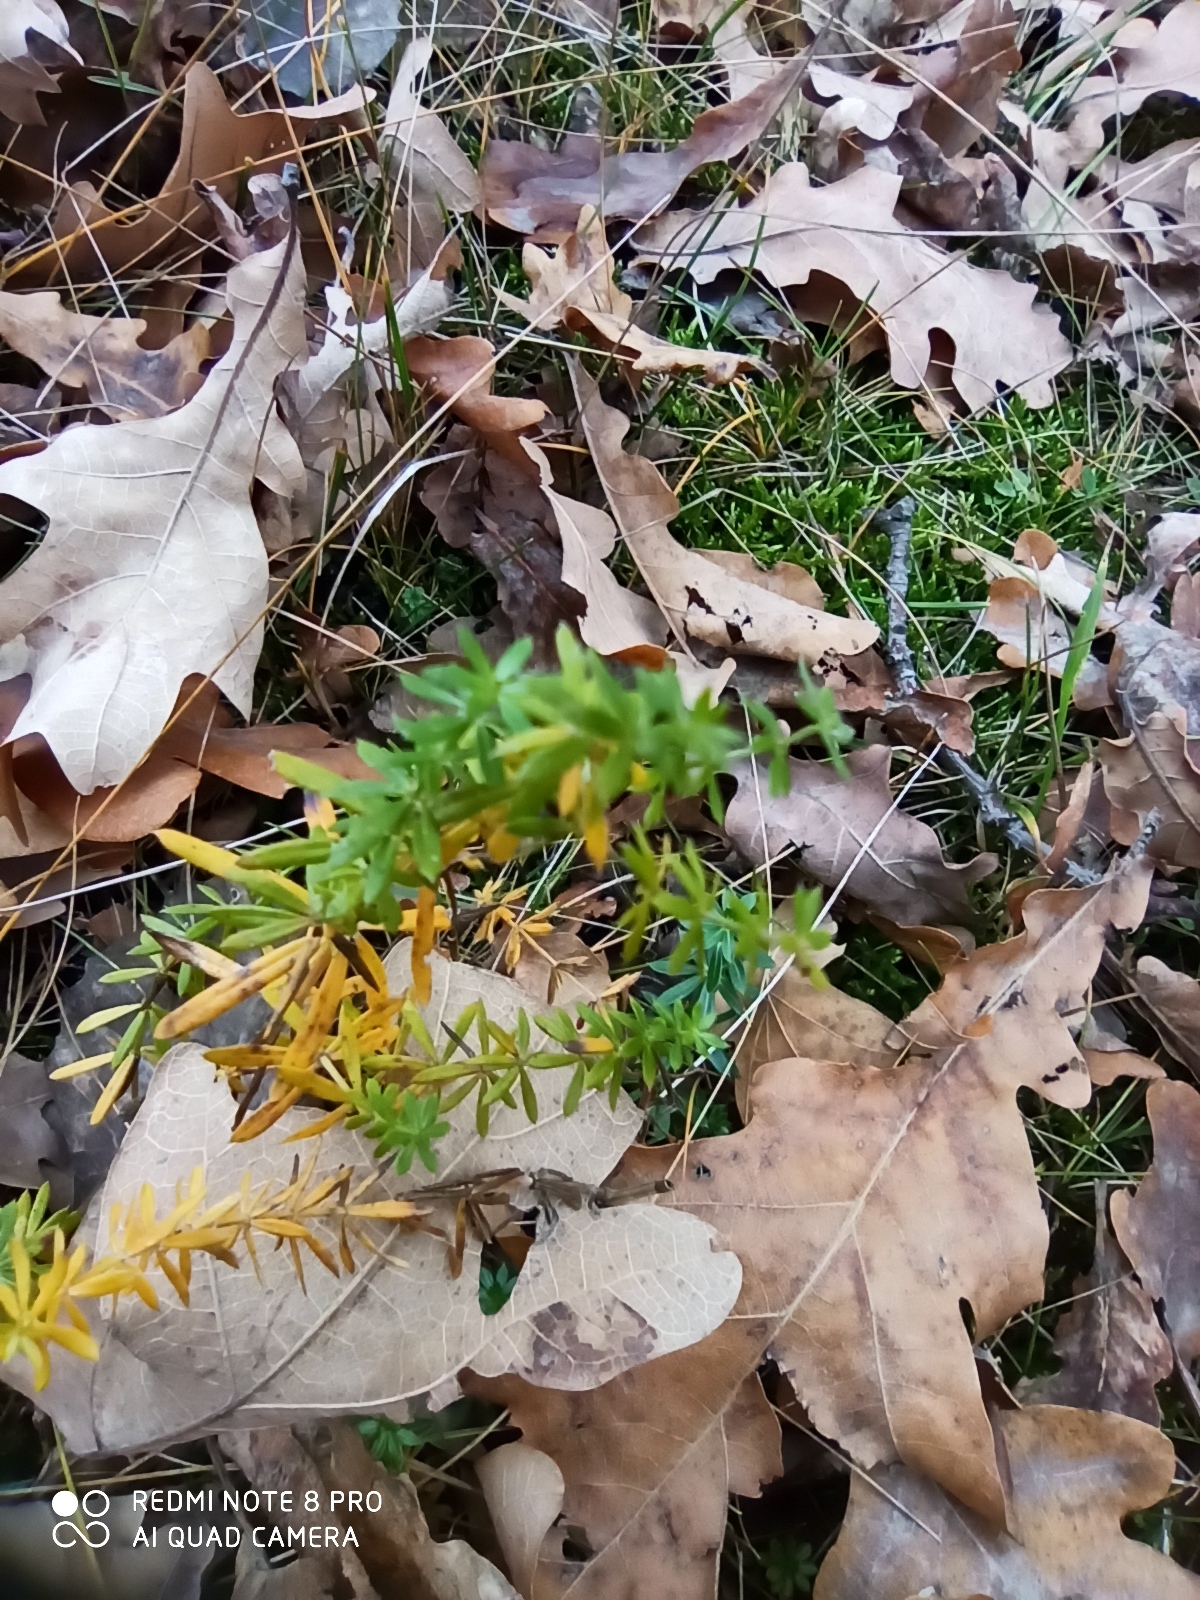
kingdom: Plantae
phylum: Tracheophyta
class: Magnoliopsida
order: Gentianales
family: Rubiaceae
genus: Galium
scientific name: Galium mollugo
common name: Hedge bedstraw
